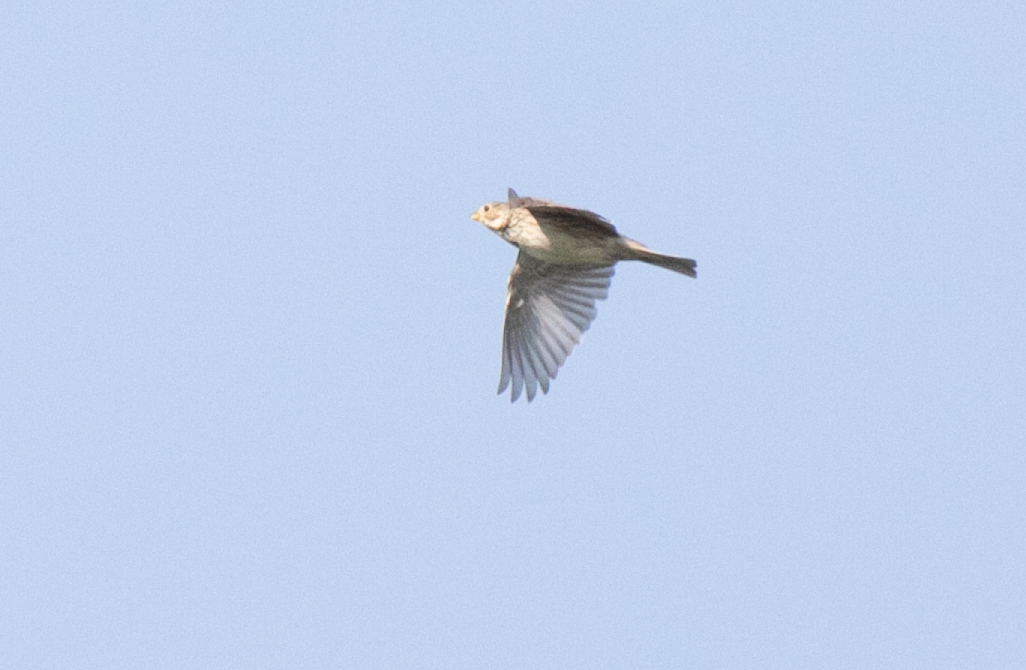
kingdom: Animalia
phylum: Chordata
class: Aves
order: Passeriformes
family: Emberizidae
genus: Emberiza
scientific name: Emberiza calandra
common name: Corn bunting
